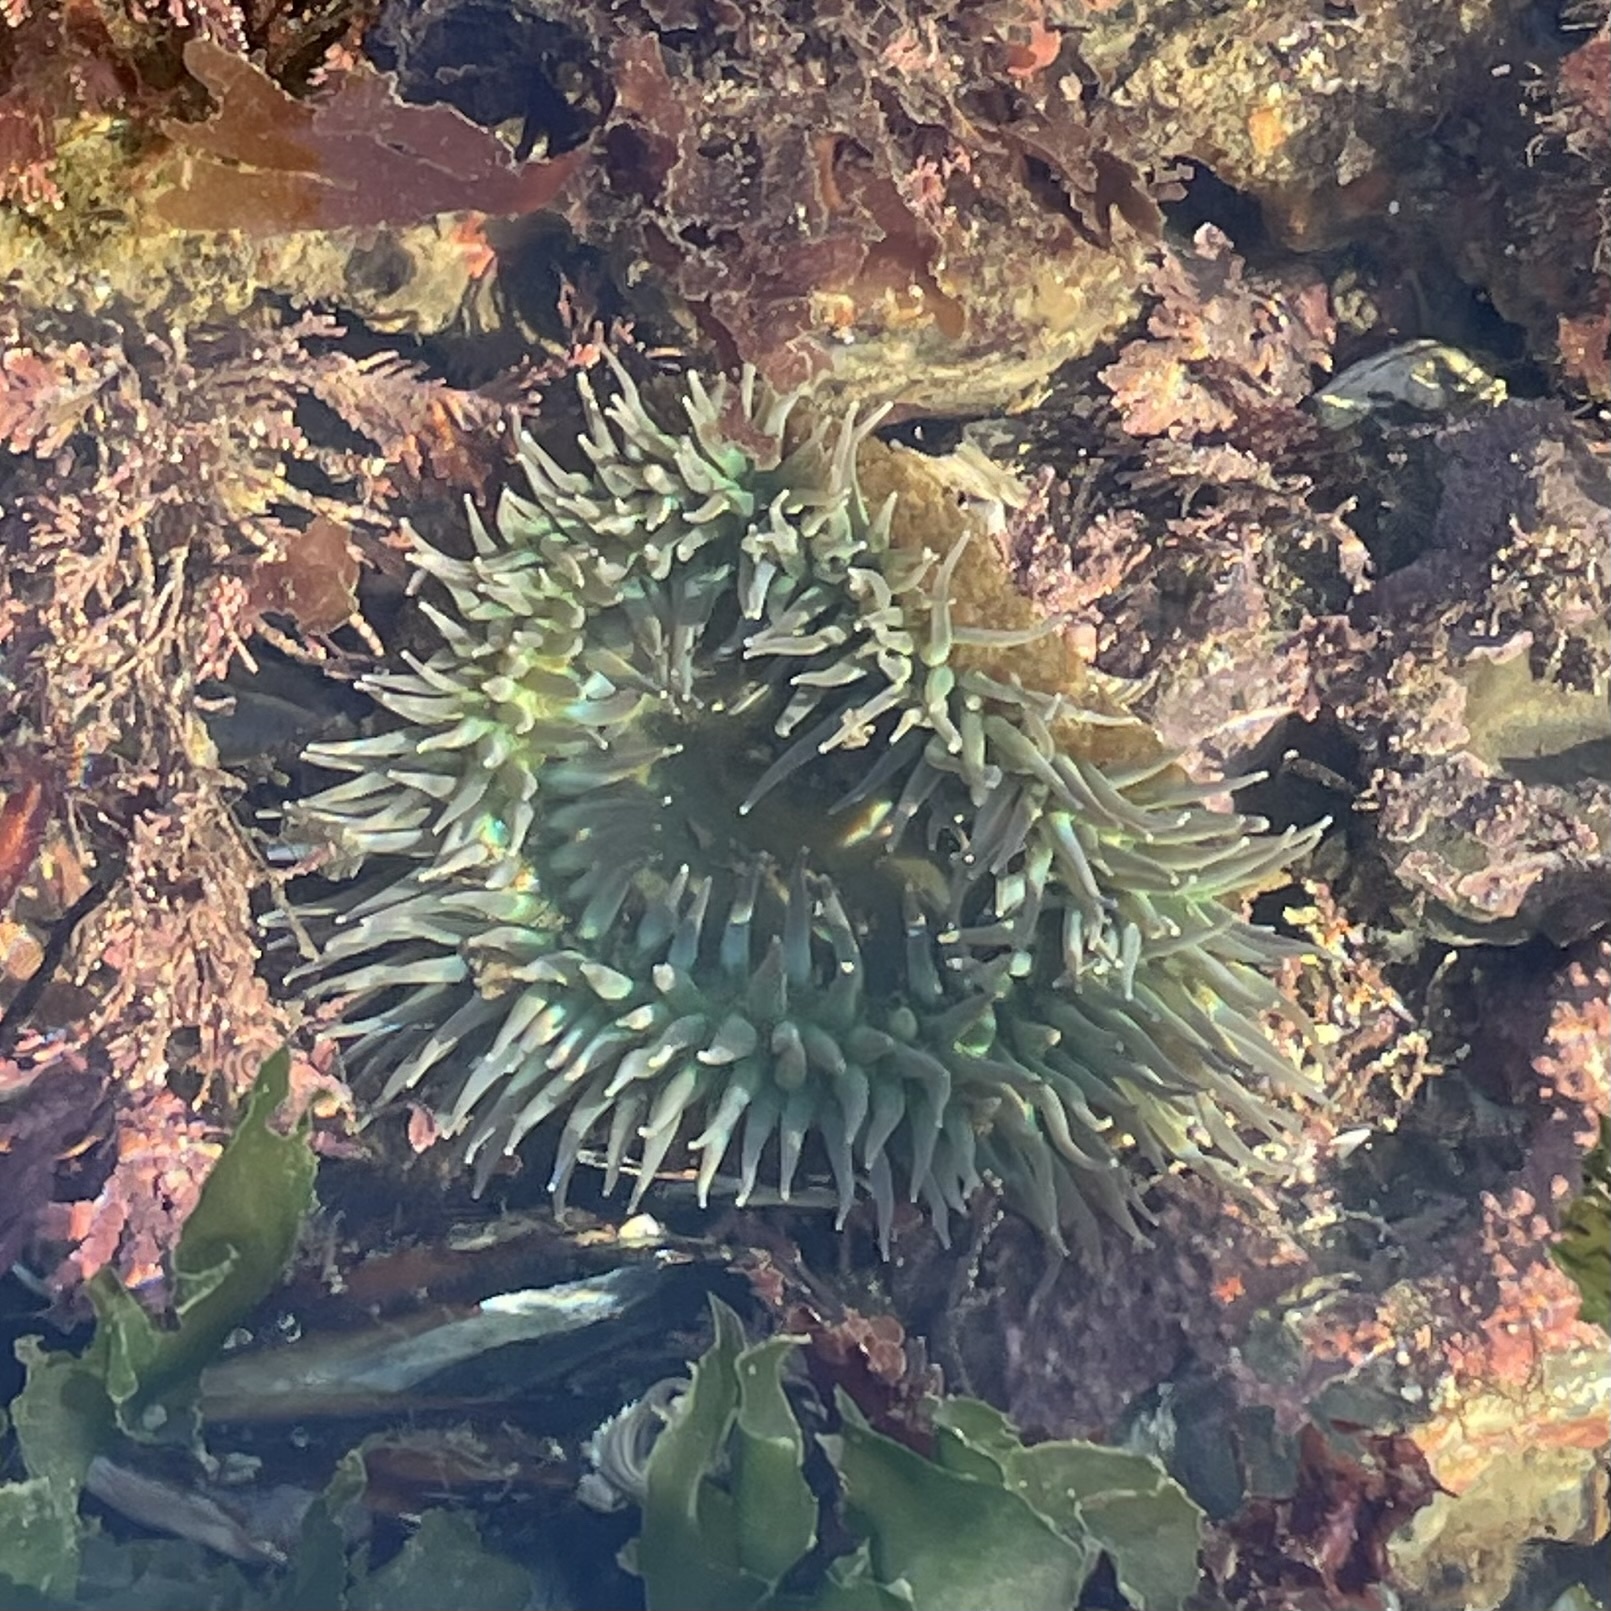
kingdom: Animalia
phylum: Cnidaria
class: Anthozoa
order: Actiniaria
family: Actiniidae
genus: Anthopleura
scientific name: Anthopleura xanthogrammica
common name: Giant green anemone
